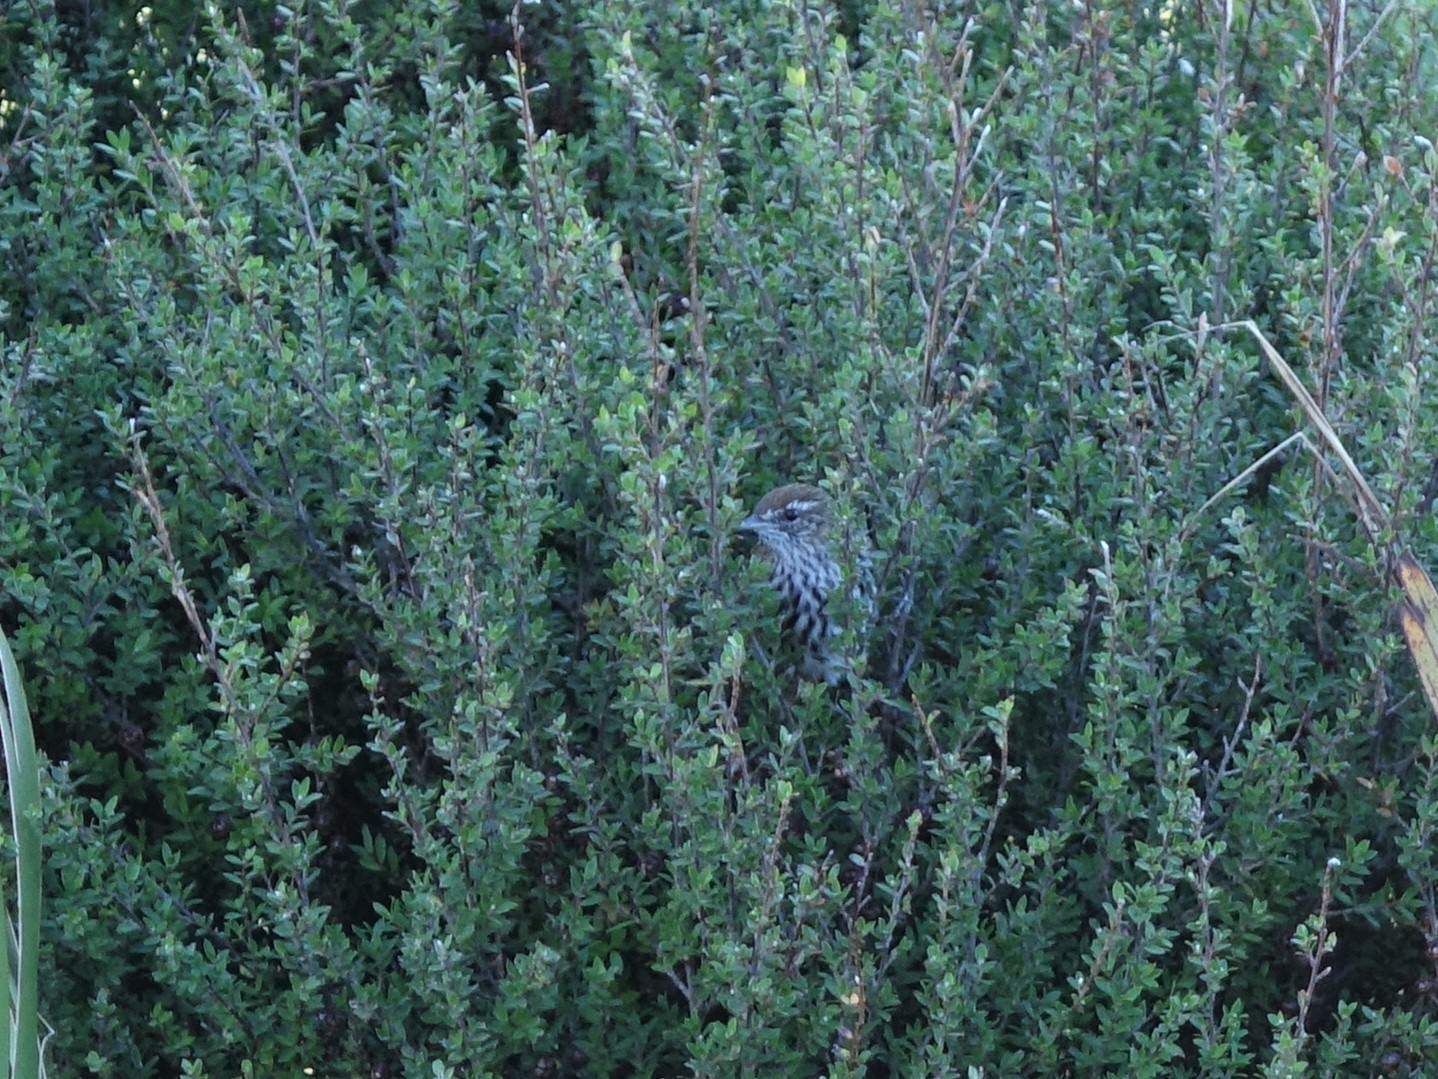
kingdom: Animalia
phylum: Chordata
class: Aves
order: Passeriformes
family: Locustellidae
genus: Megalurus
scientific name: Megalurus punctatus
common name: New zealand fernbird
